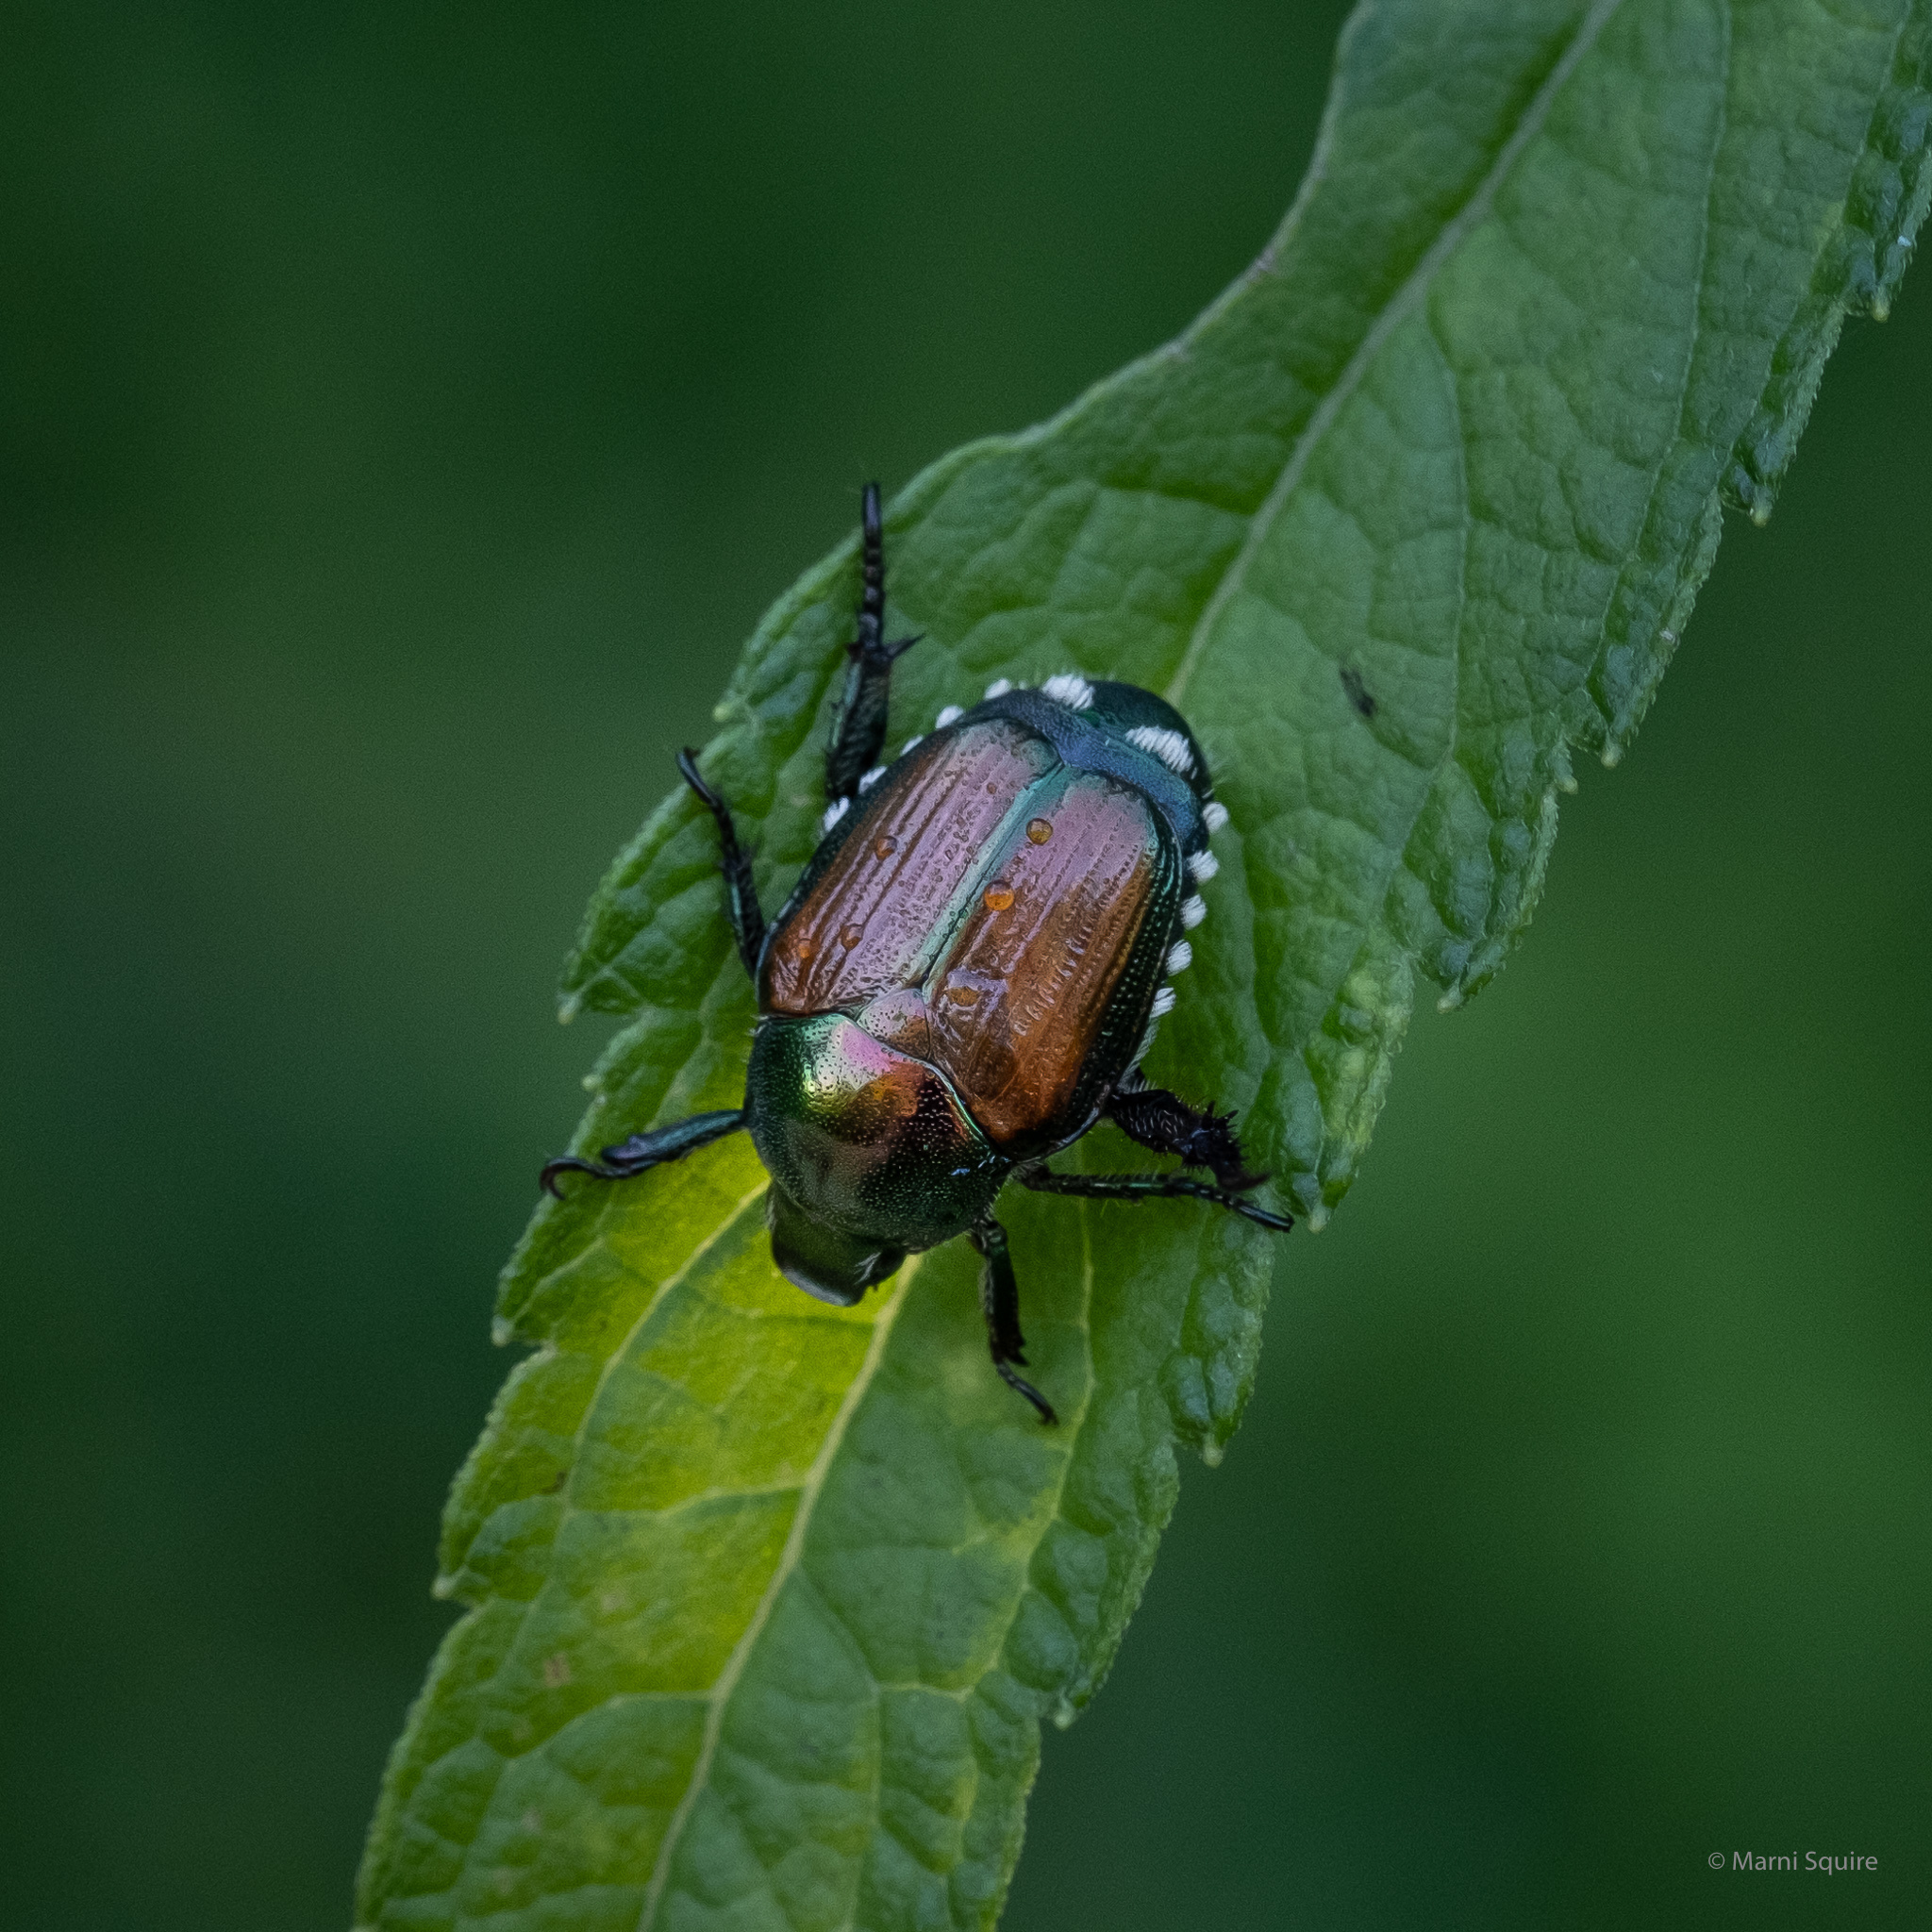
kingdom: Animalia
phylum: Arthropoda
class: Insecta
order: Coleoptera
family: Scarabaeidae
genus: Popillia
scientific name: Popillia japonica
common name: Japanese beetle
